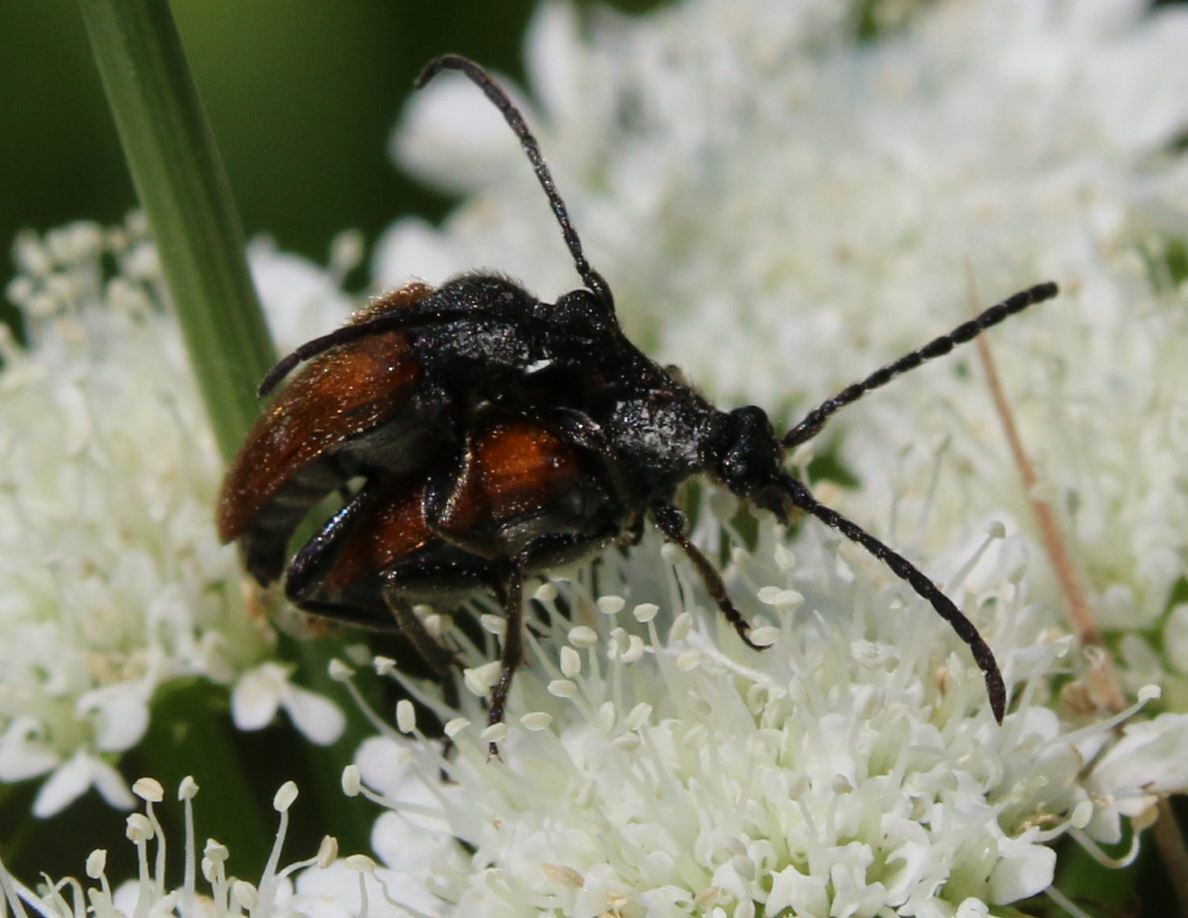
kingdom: Animalia
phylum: Arthropoda
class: Insecta
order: Coleoptera
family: Cerambycidae
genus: Pseudovadonia
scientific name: Pseudovadonia livida
